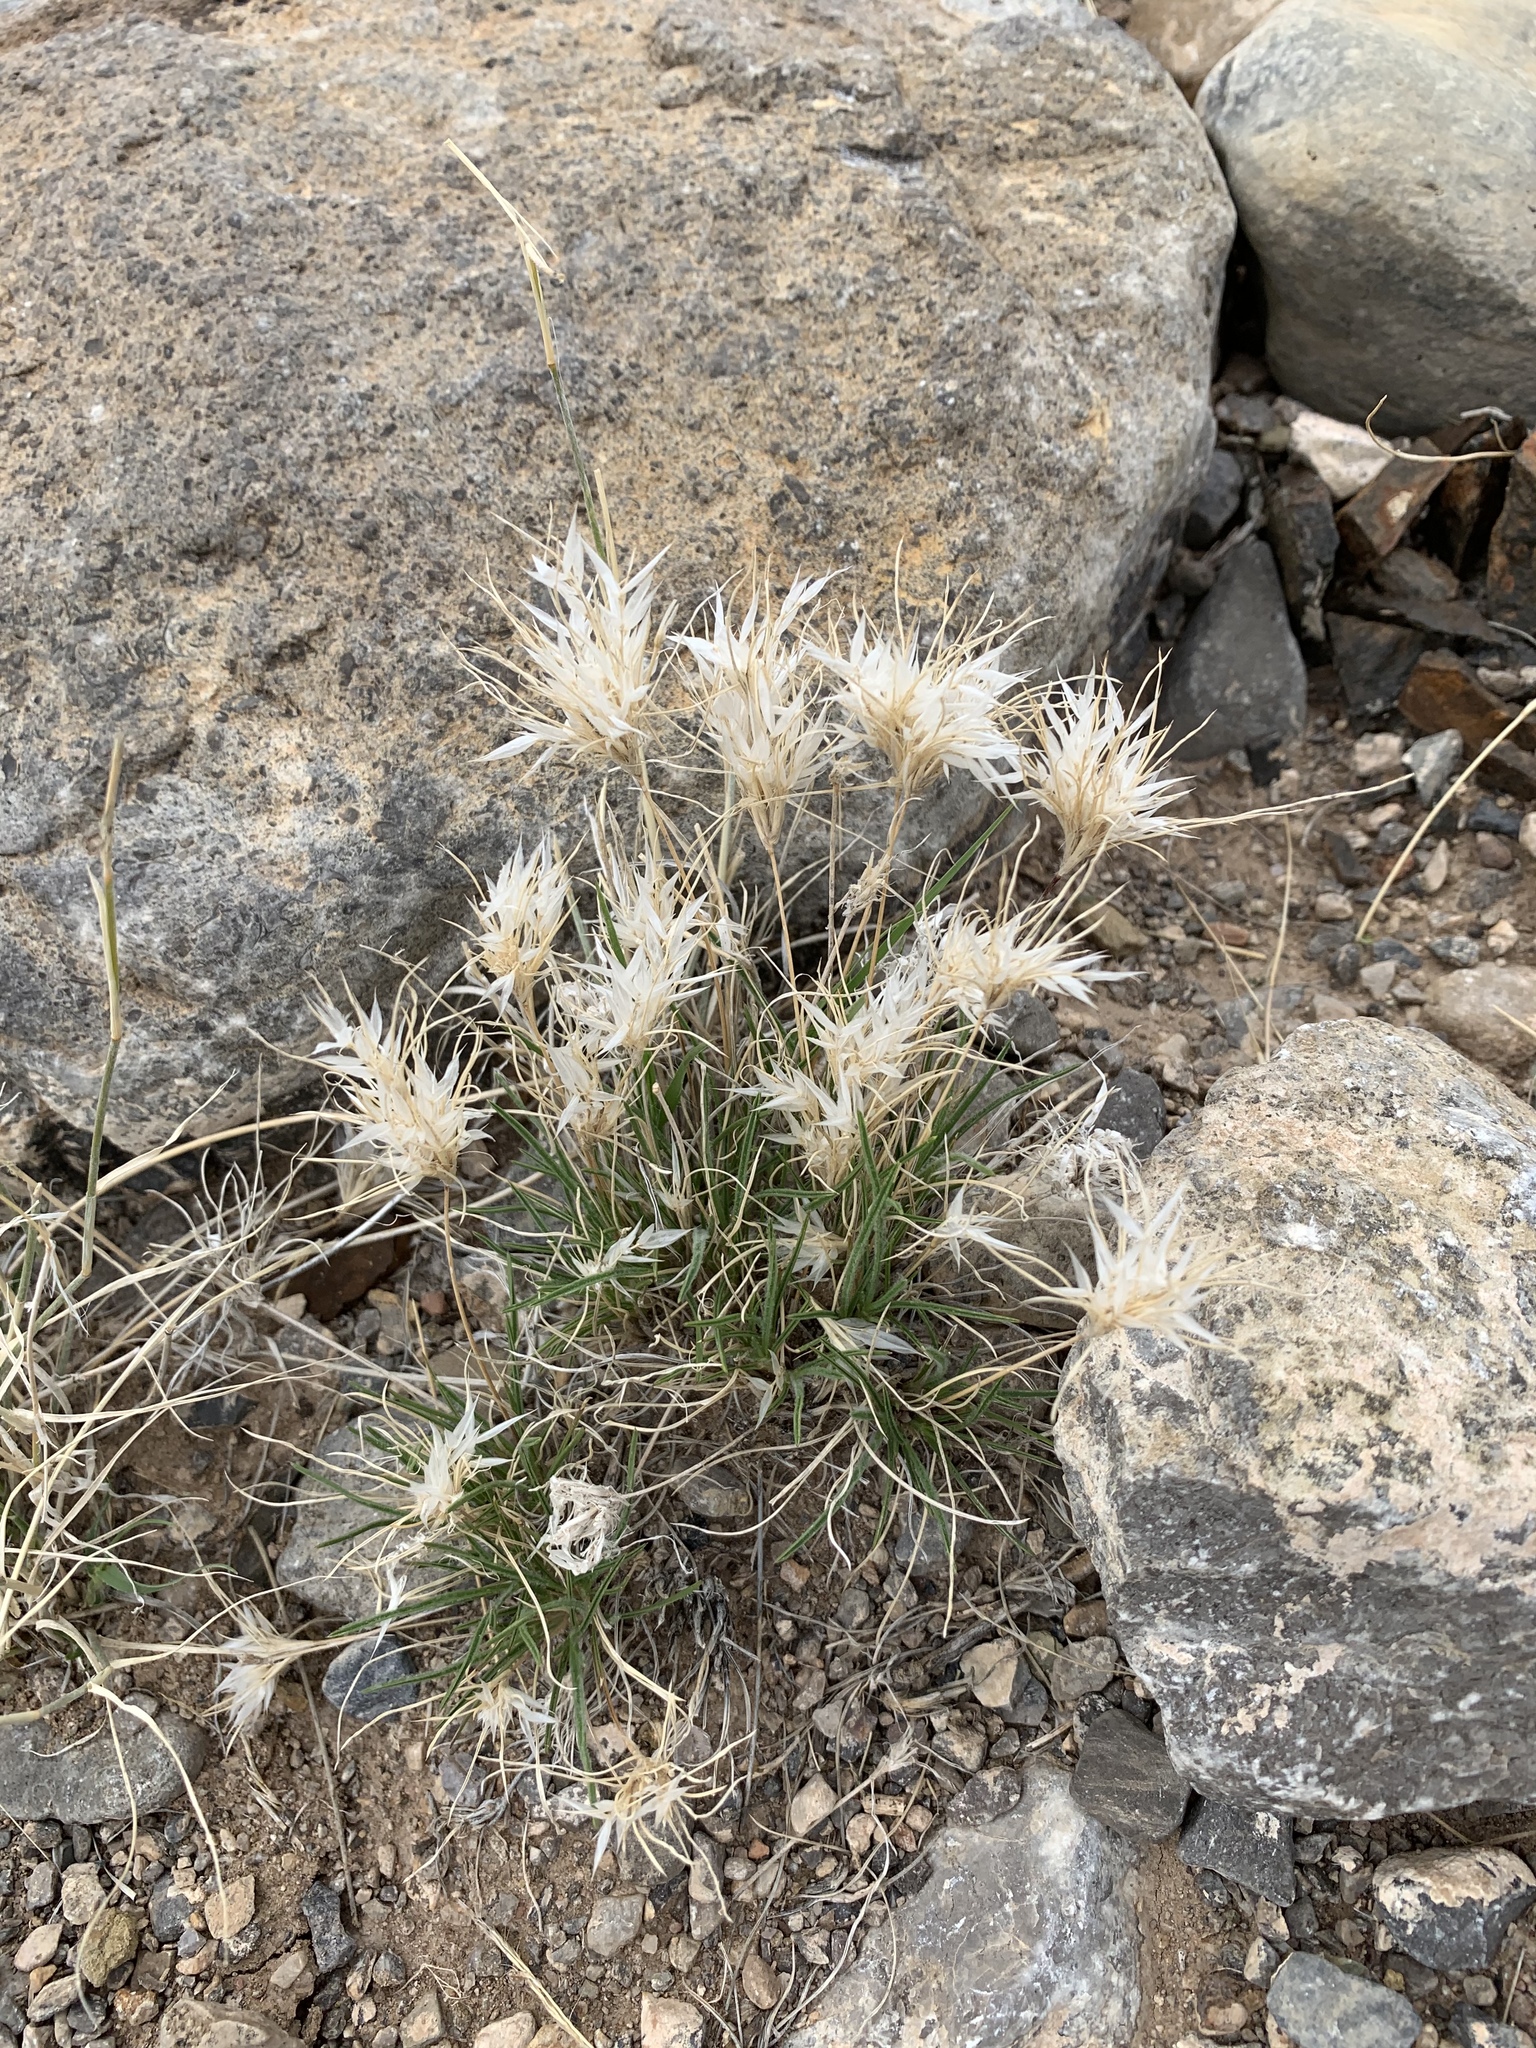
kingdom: Plantae
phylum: Tracheophyta
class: Liliopsida
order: Poales
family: Poaceae
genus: Dasyochloa
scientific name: Dasyochloa pulchella
